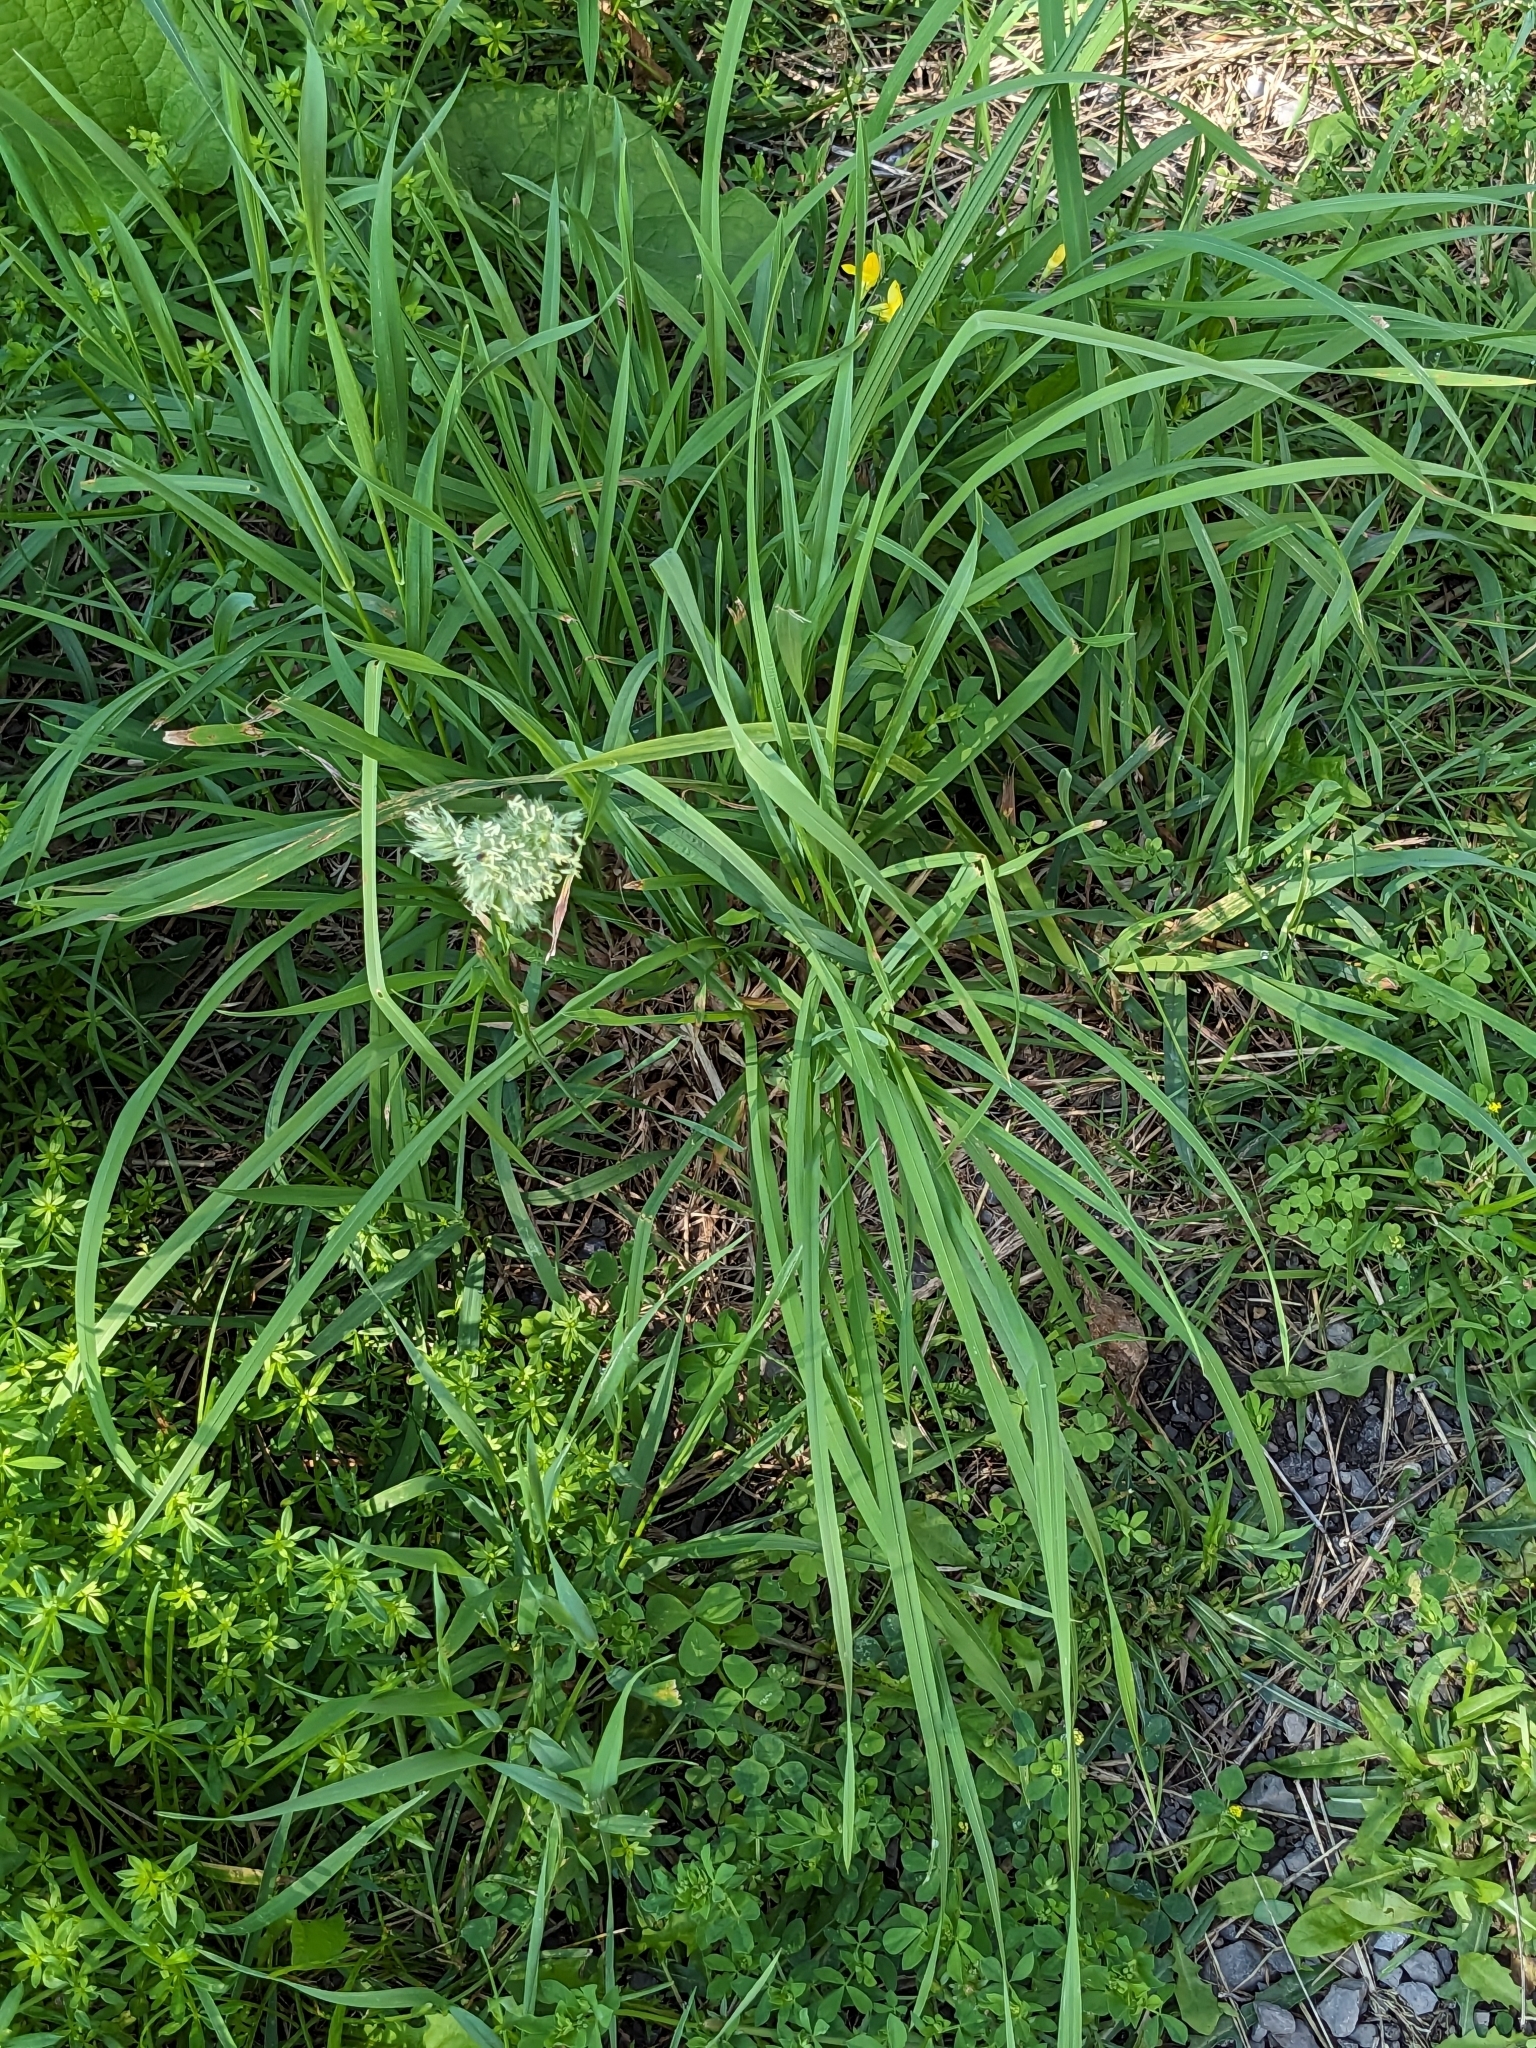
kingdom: Plantae
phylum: Tracheophyta
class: Liliopsida
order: Poales
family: Poaceae
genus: Dactylis
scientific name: Dactylis glomerata
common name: Orchardgrass
